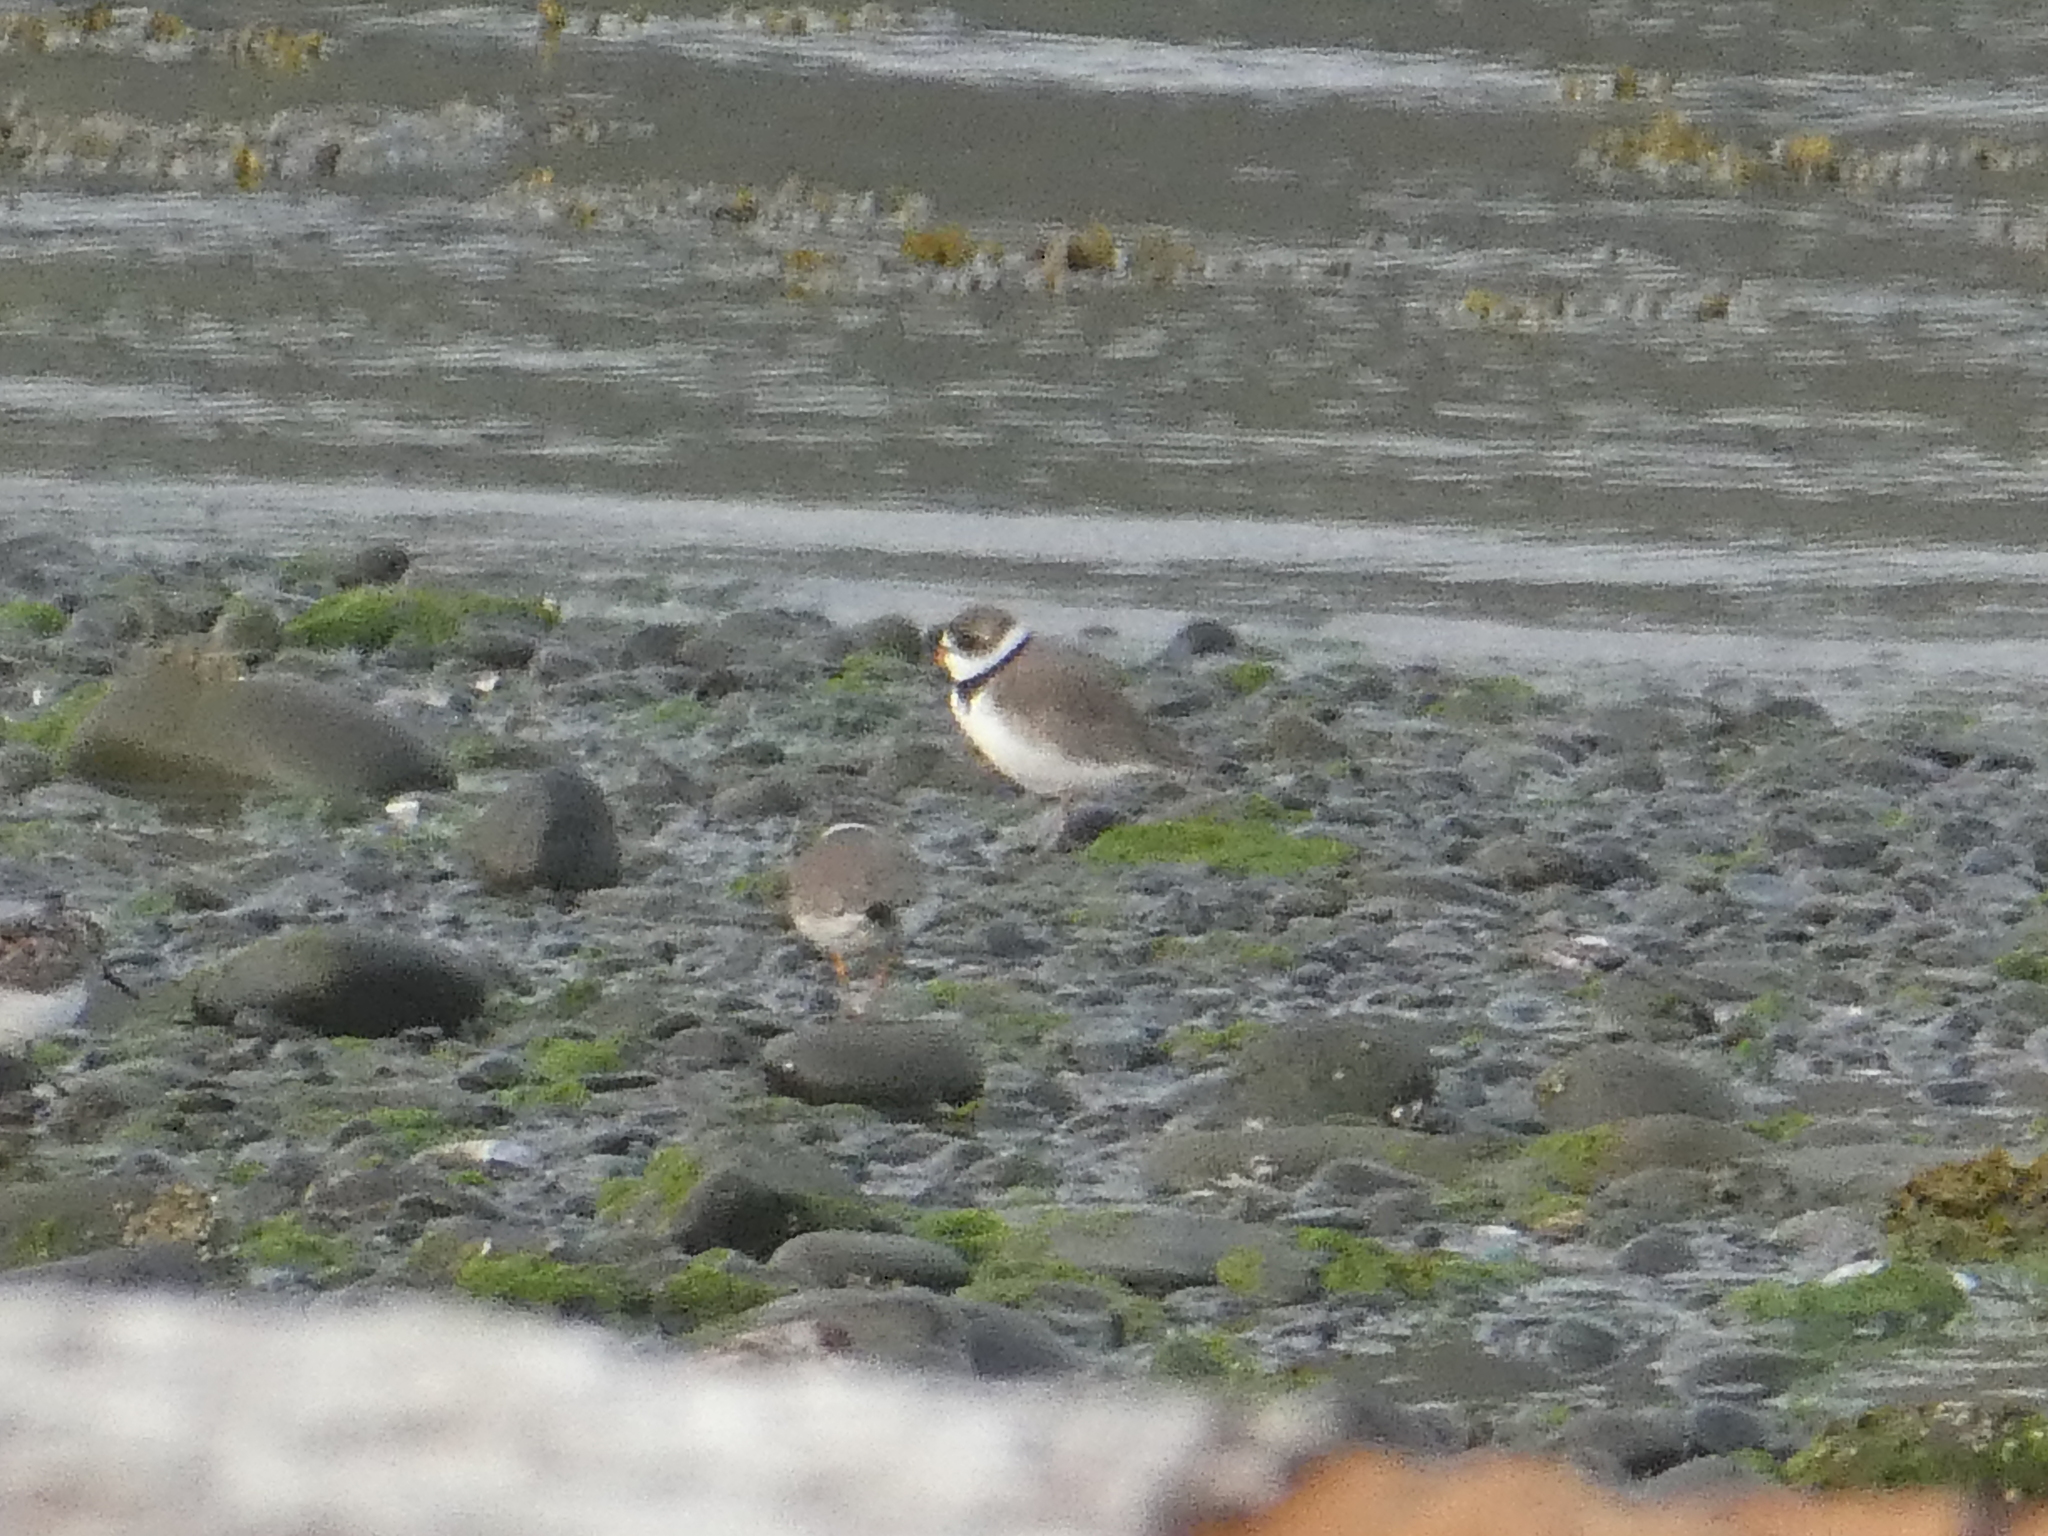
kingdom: Animalia
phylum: Chordata
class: Aves
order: Charadriiformes
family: Charadriidae
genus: Charadrius
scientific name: Charadrius semipalmatus
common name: Semipalmated plover
